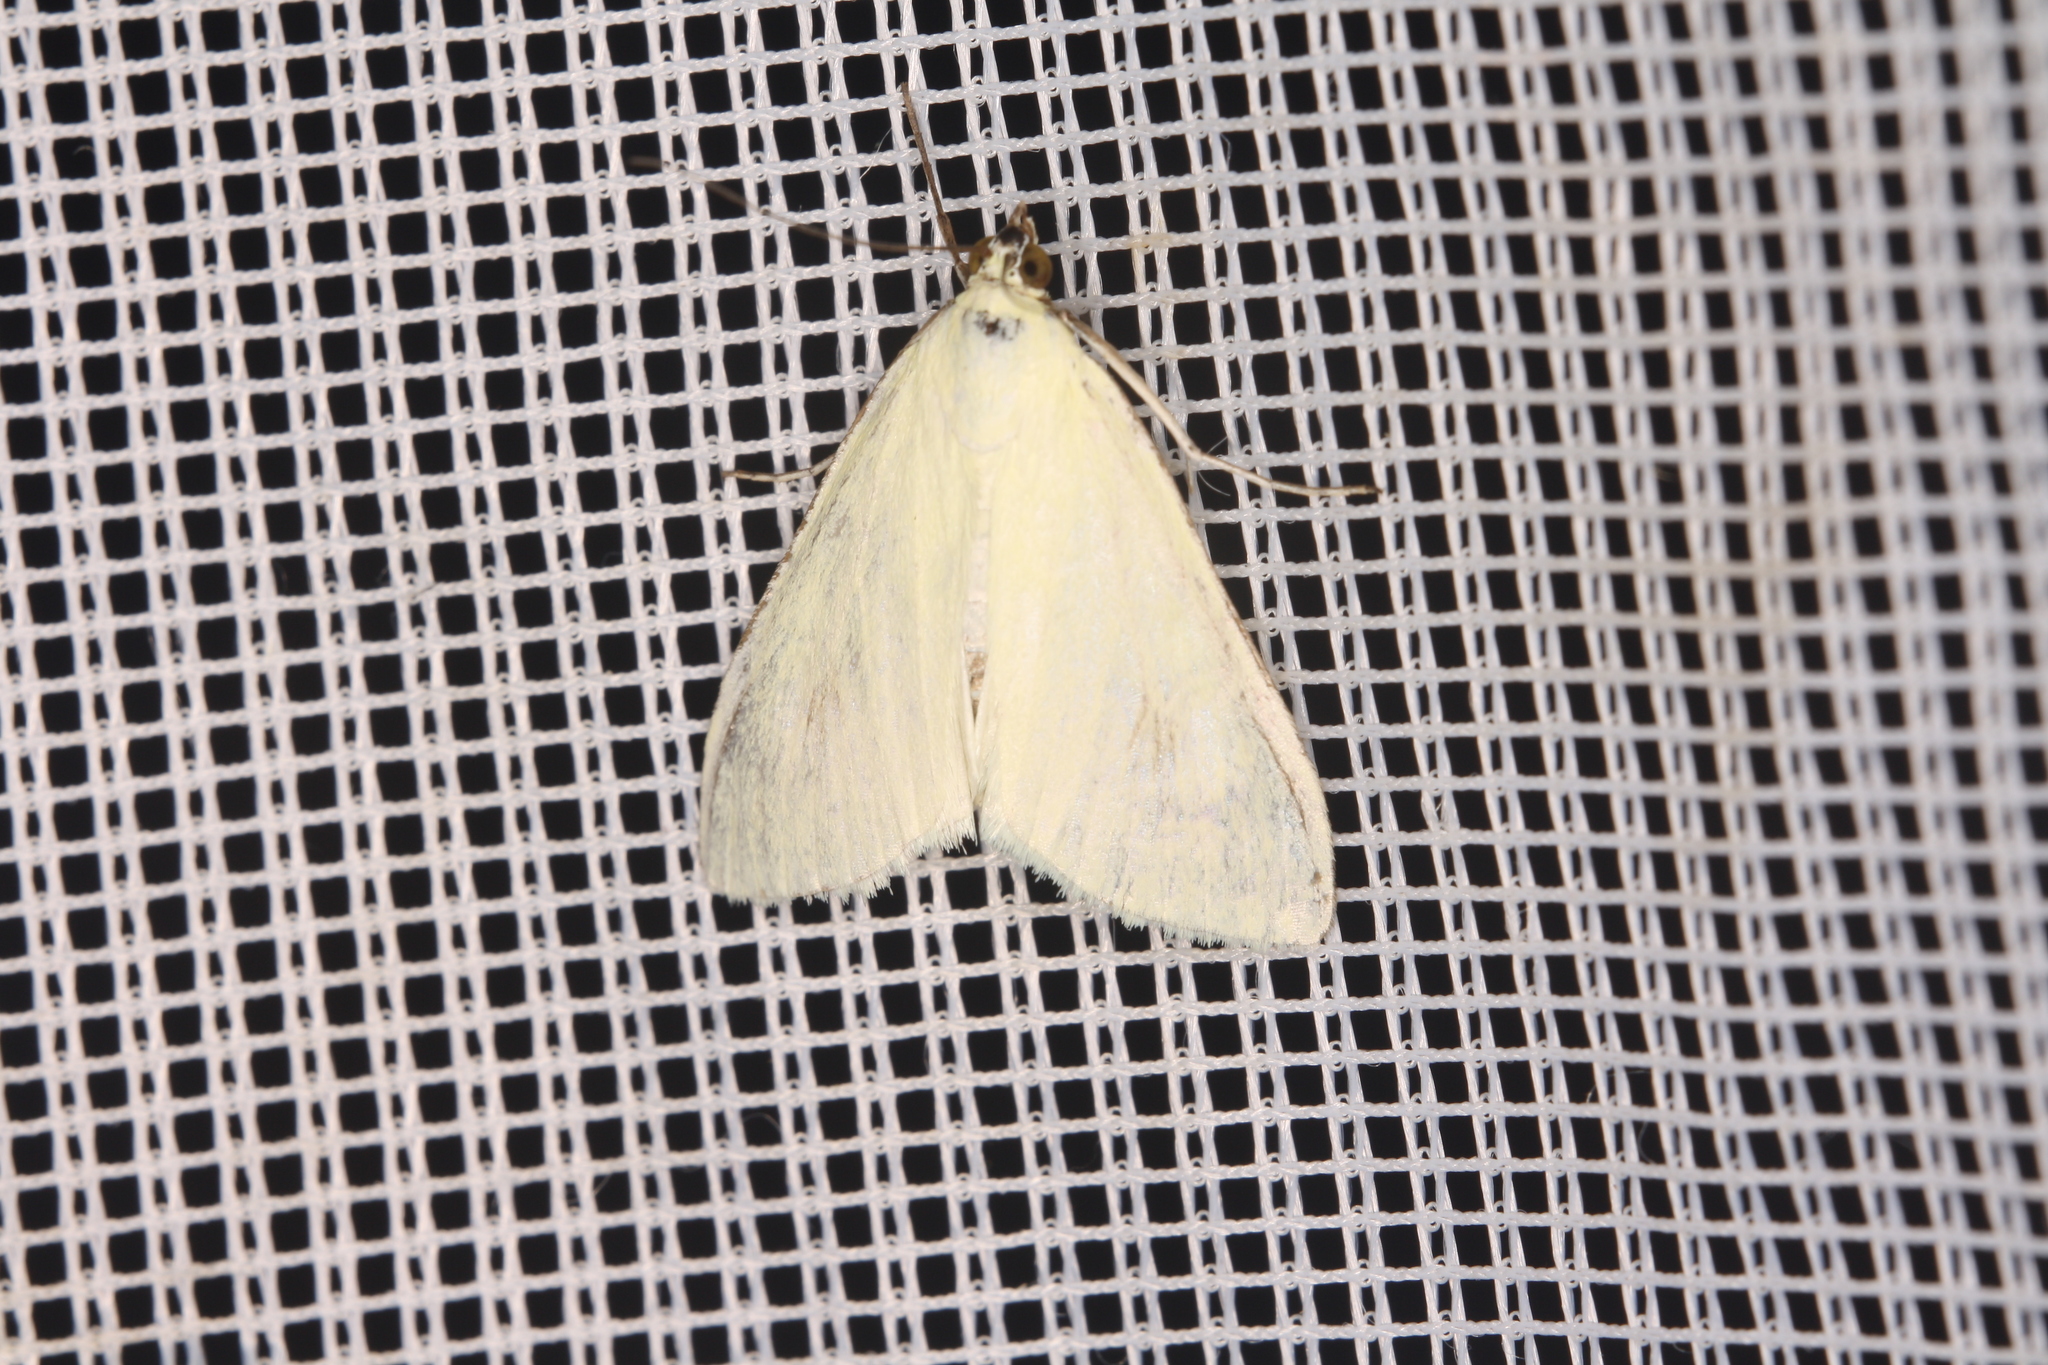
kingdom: Animalia
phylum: Arthropoda
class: Insecta
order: Lepidoptera
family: Crambidae
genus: Sitochroa
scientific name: Sitochroa palealis
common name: Greenish-yellow sitochroa moth
